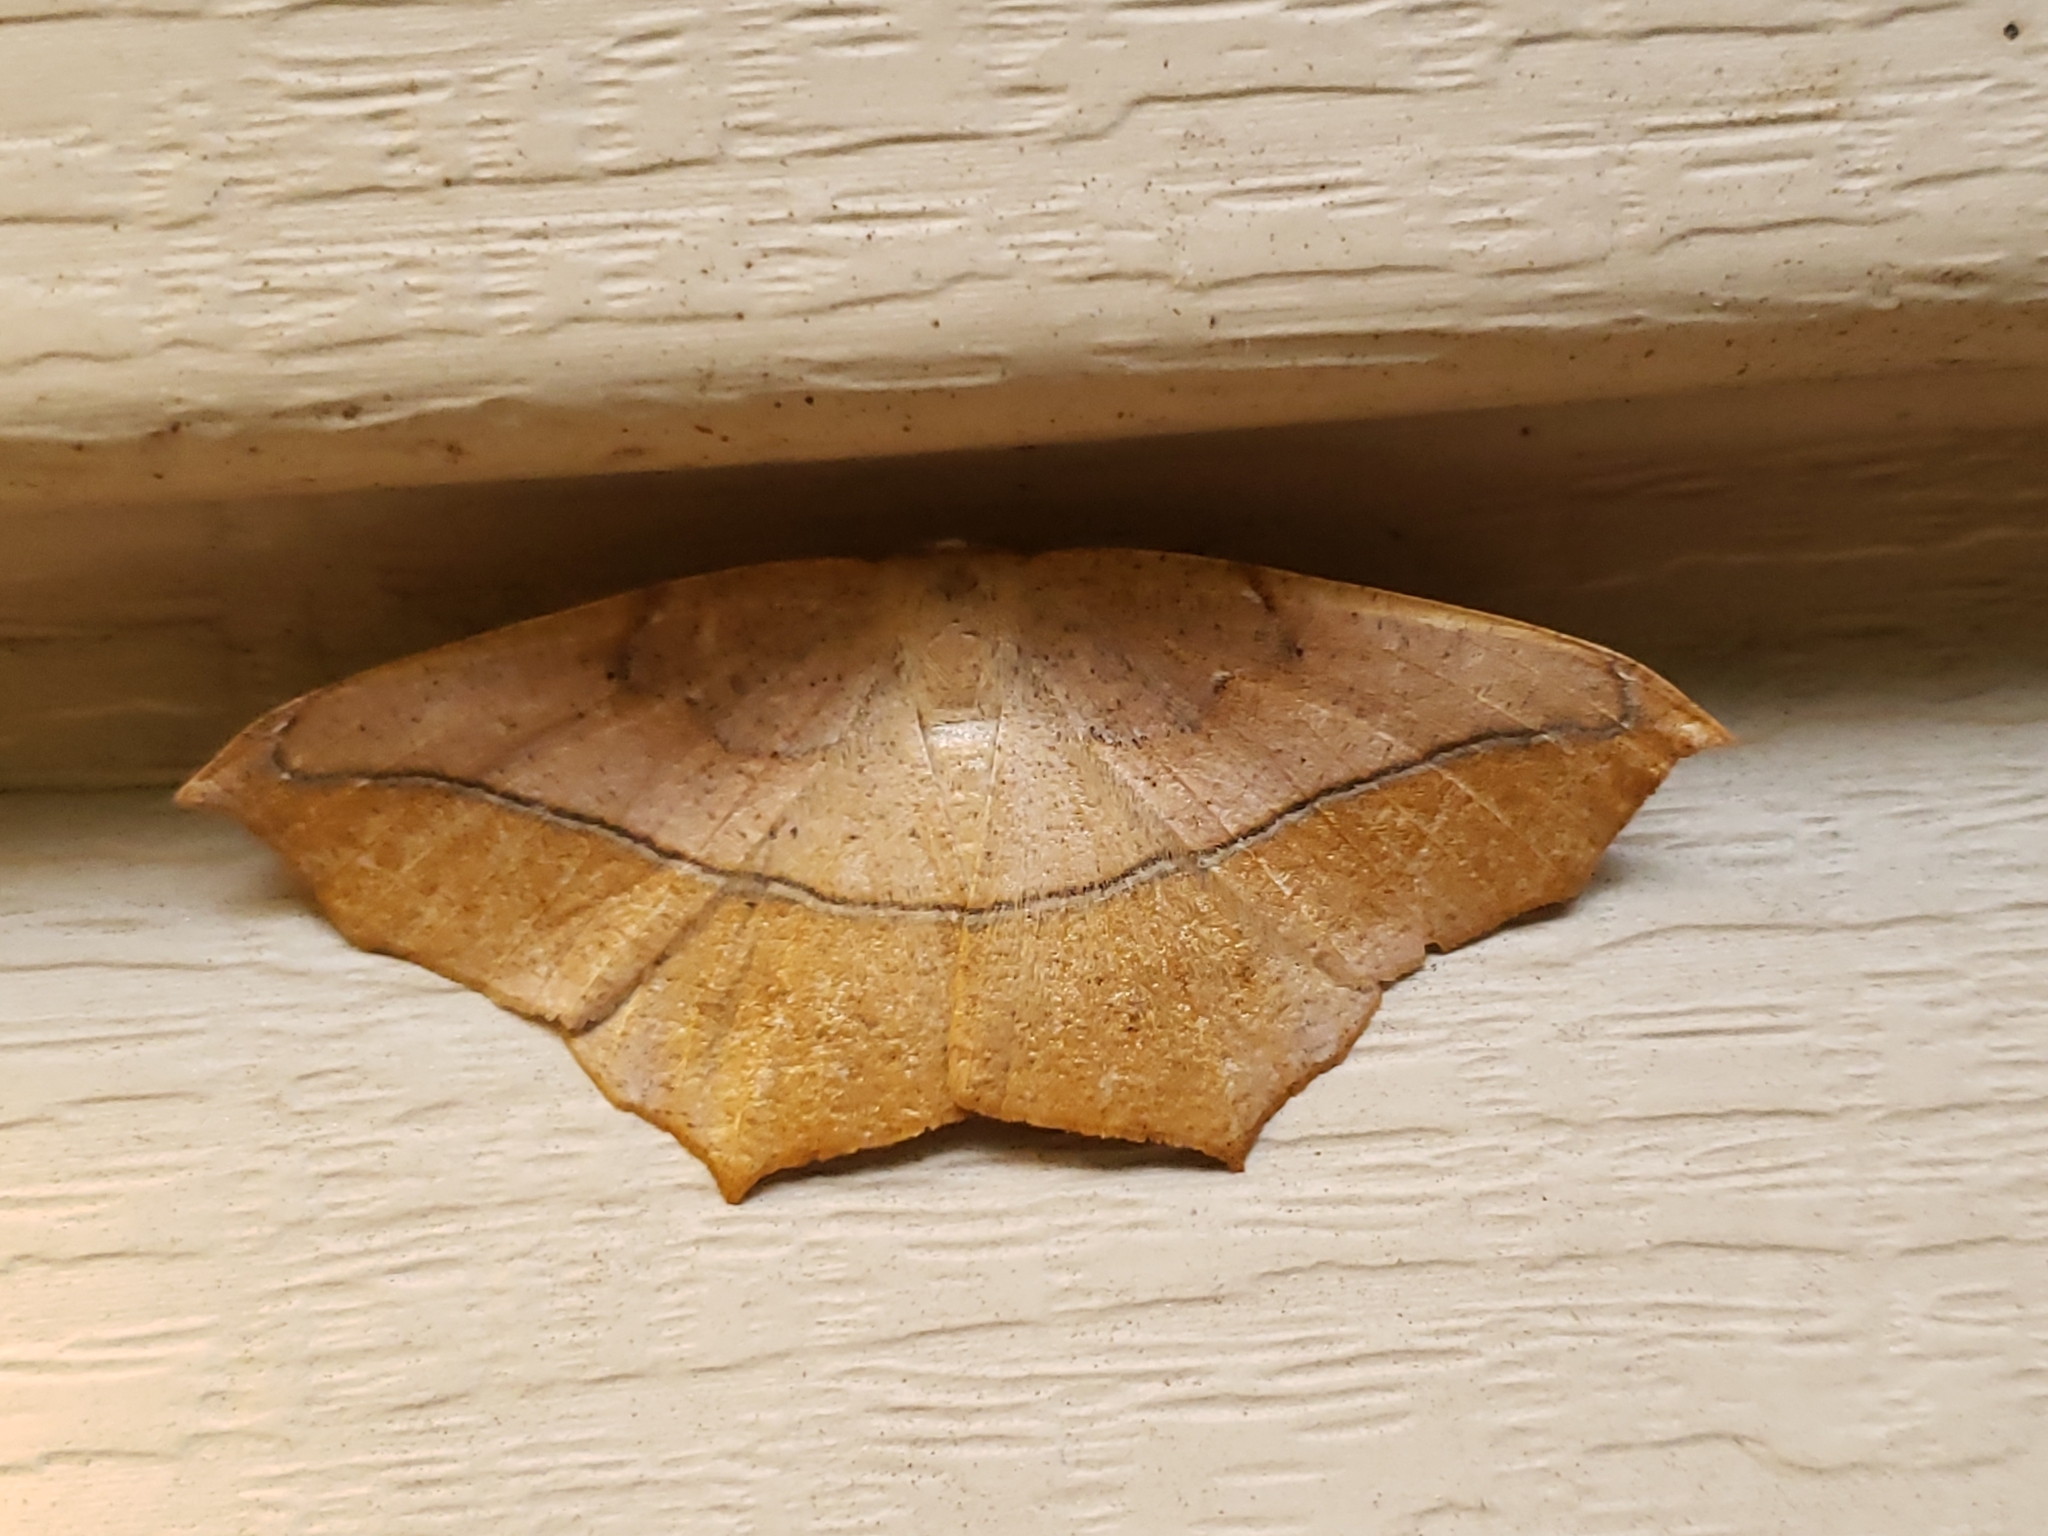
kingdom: Animalia
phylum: Arthropoda
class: Insecta
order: Lepidoptera
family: Geometridae
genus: Prochoerodes
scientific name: Prochoerodes lineola
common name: Large maple spanworm
